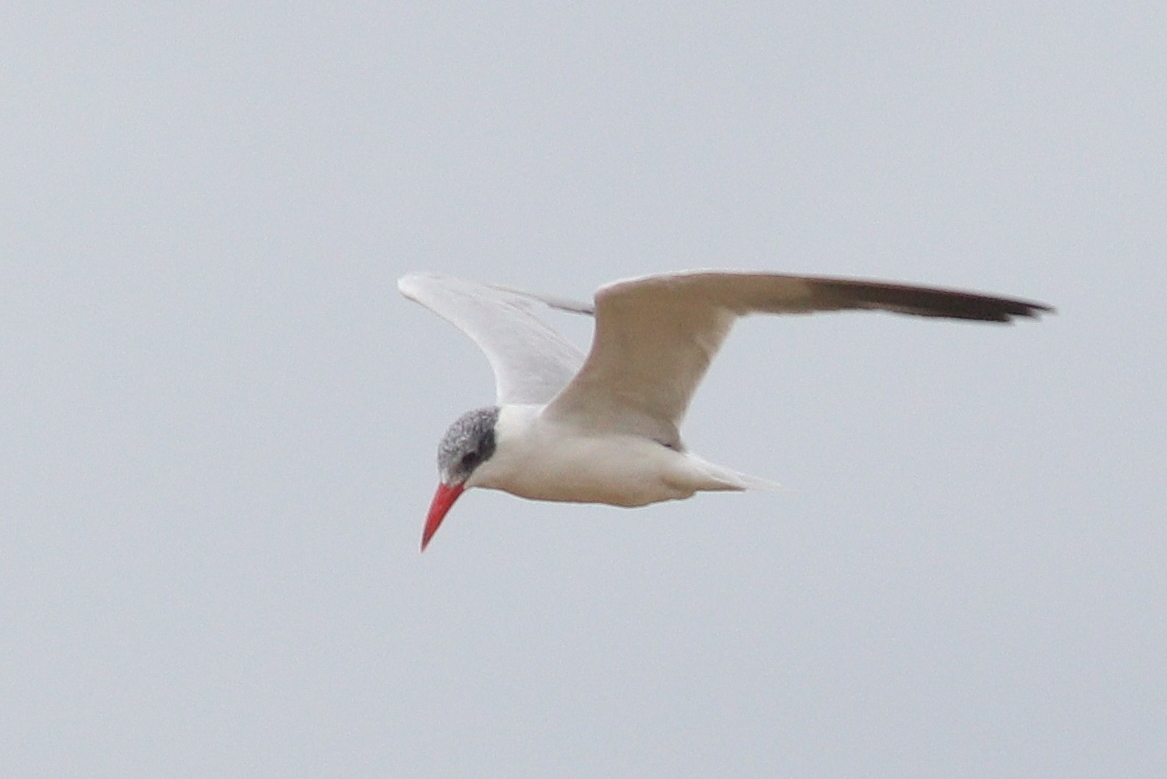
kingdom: Animalia
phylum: Chordata
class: Aves
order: Charadriiformes
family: Laridae
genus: Hydroprogne
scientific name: Hydroprogne caspia
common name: Caspian tern
